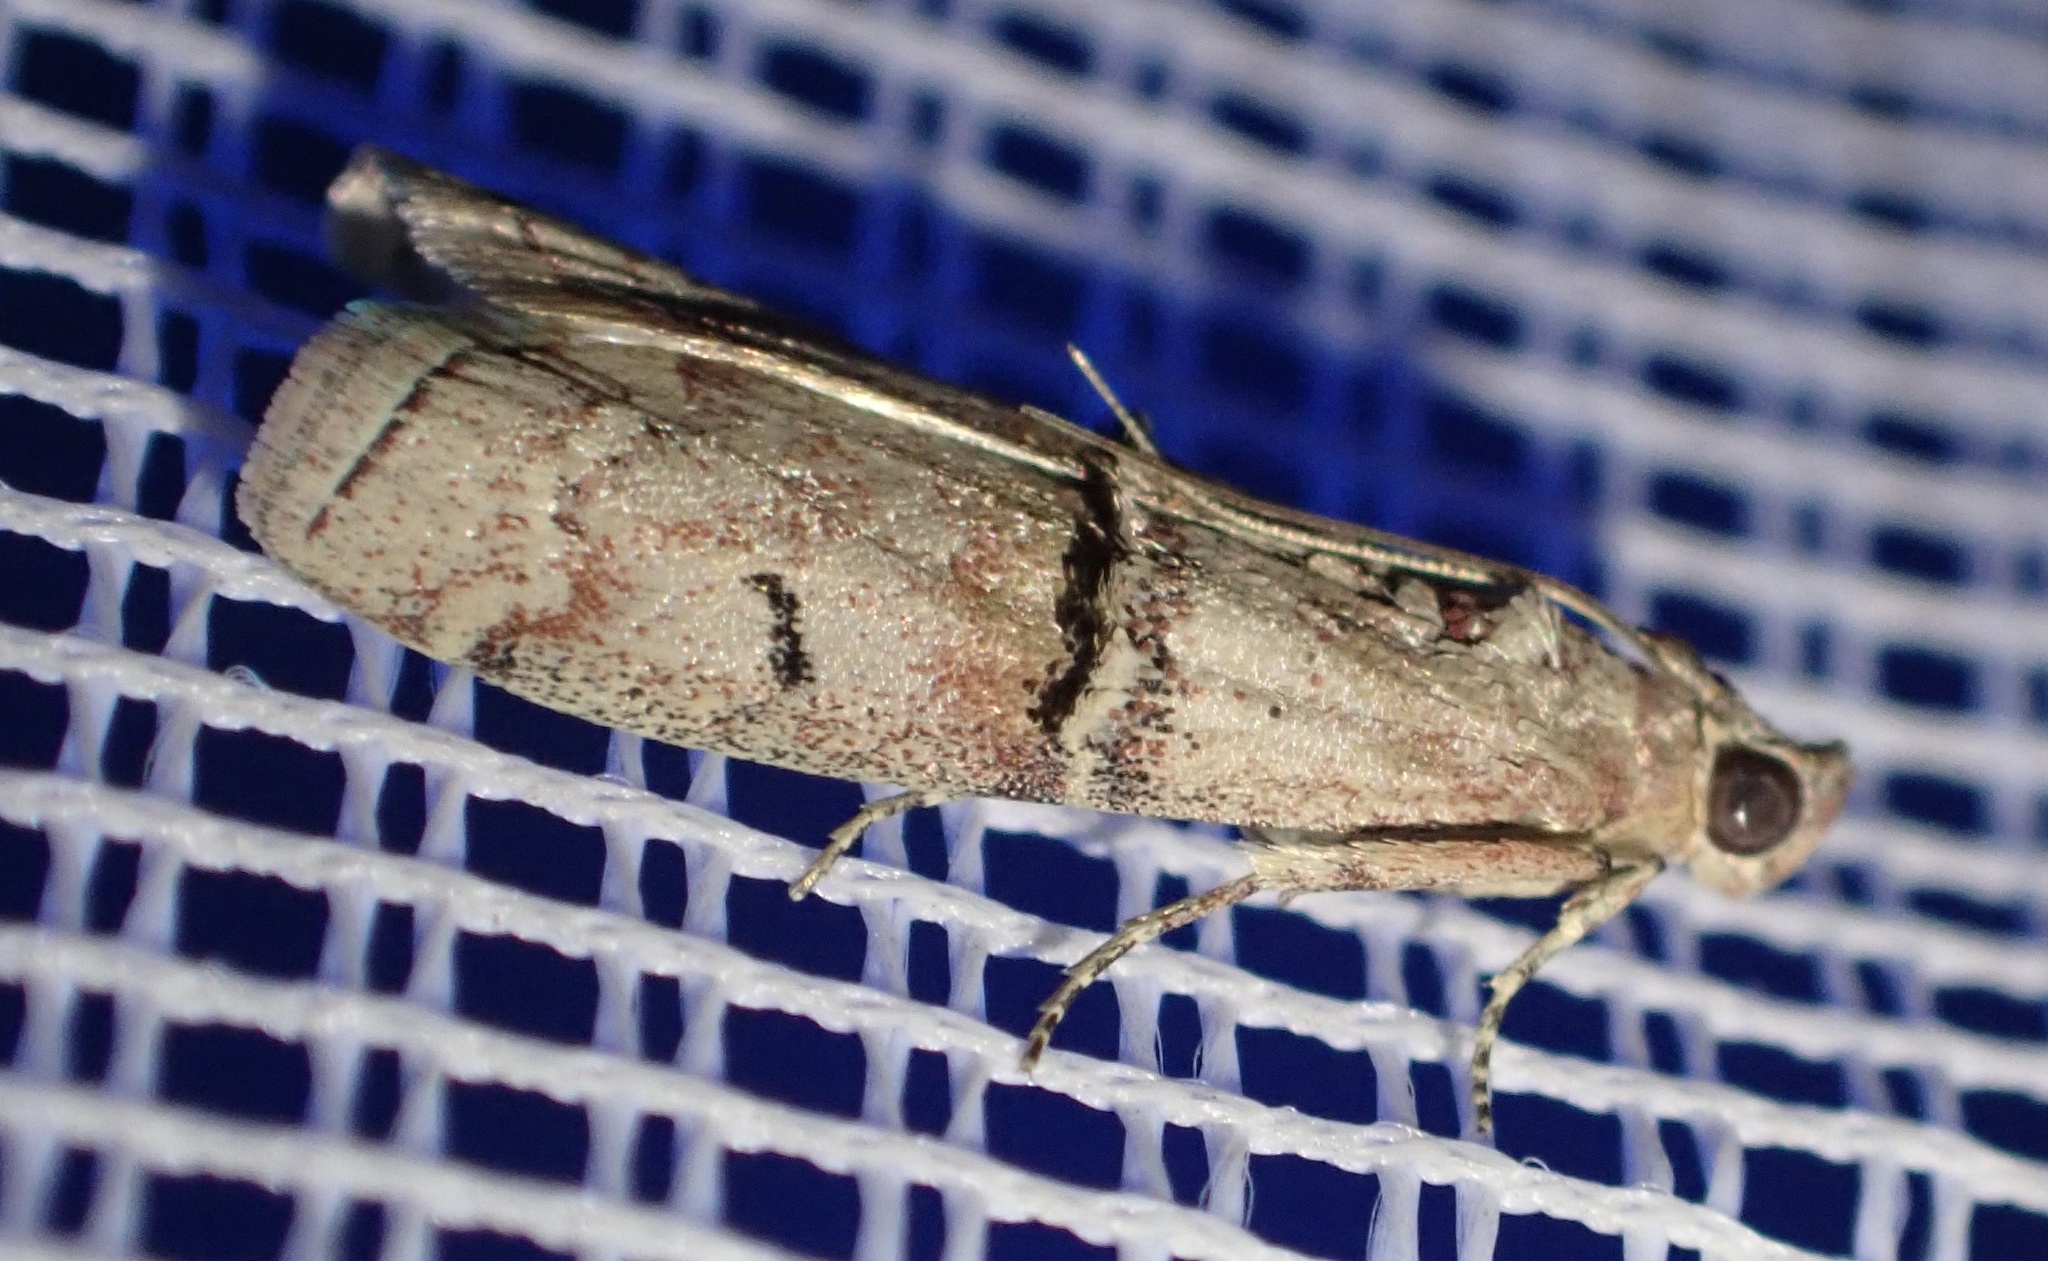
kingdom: Animalia
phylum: Arthropoda
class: Insecta
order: Lepidoptera
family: Pyralidae
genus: Pempelia
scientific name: Pempelia turturella
